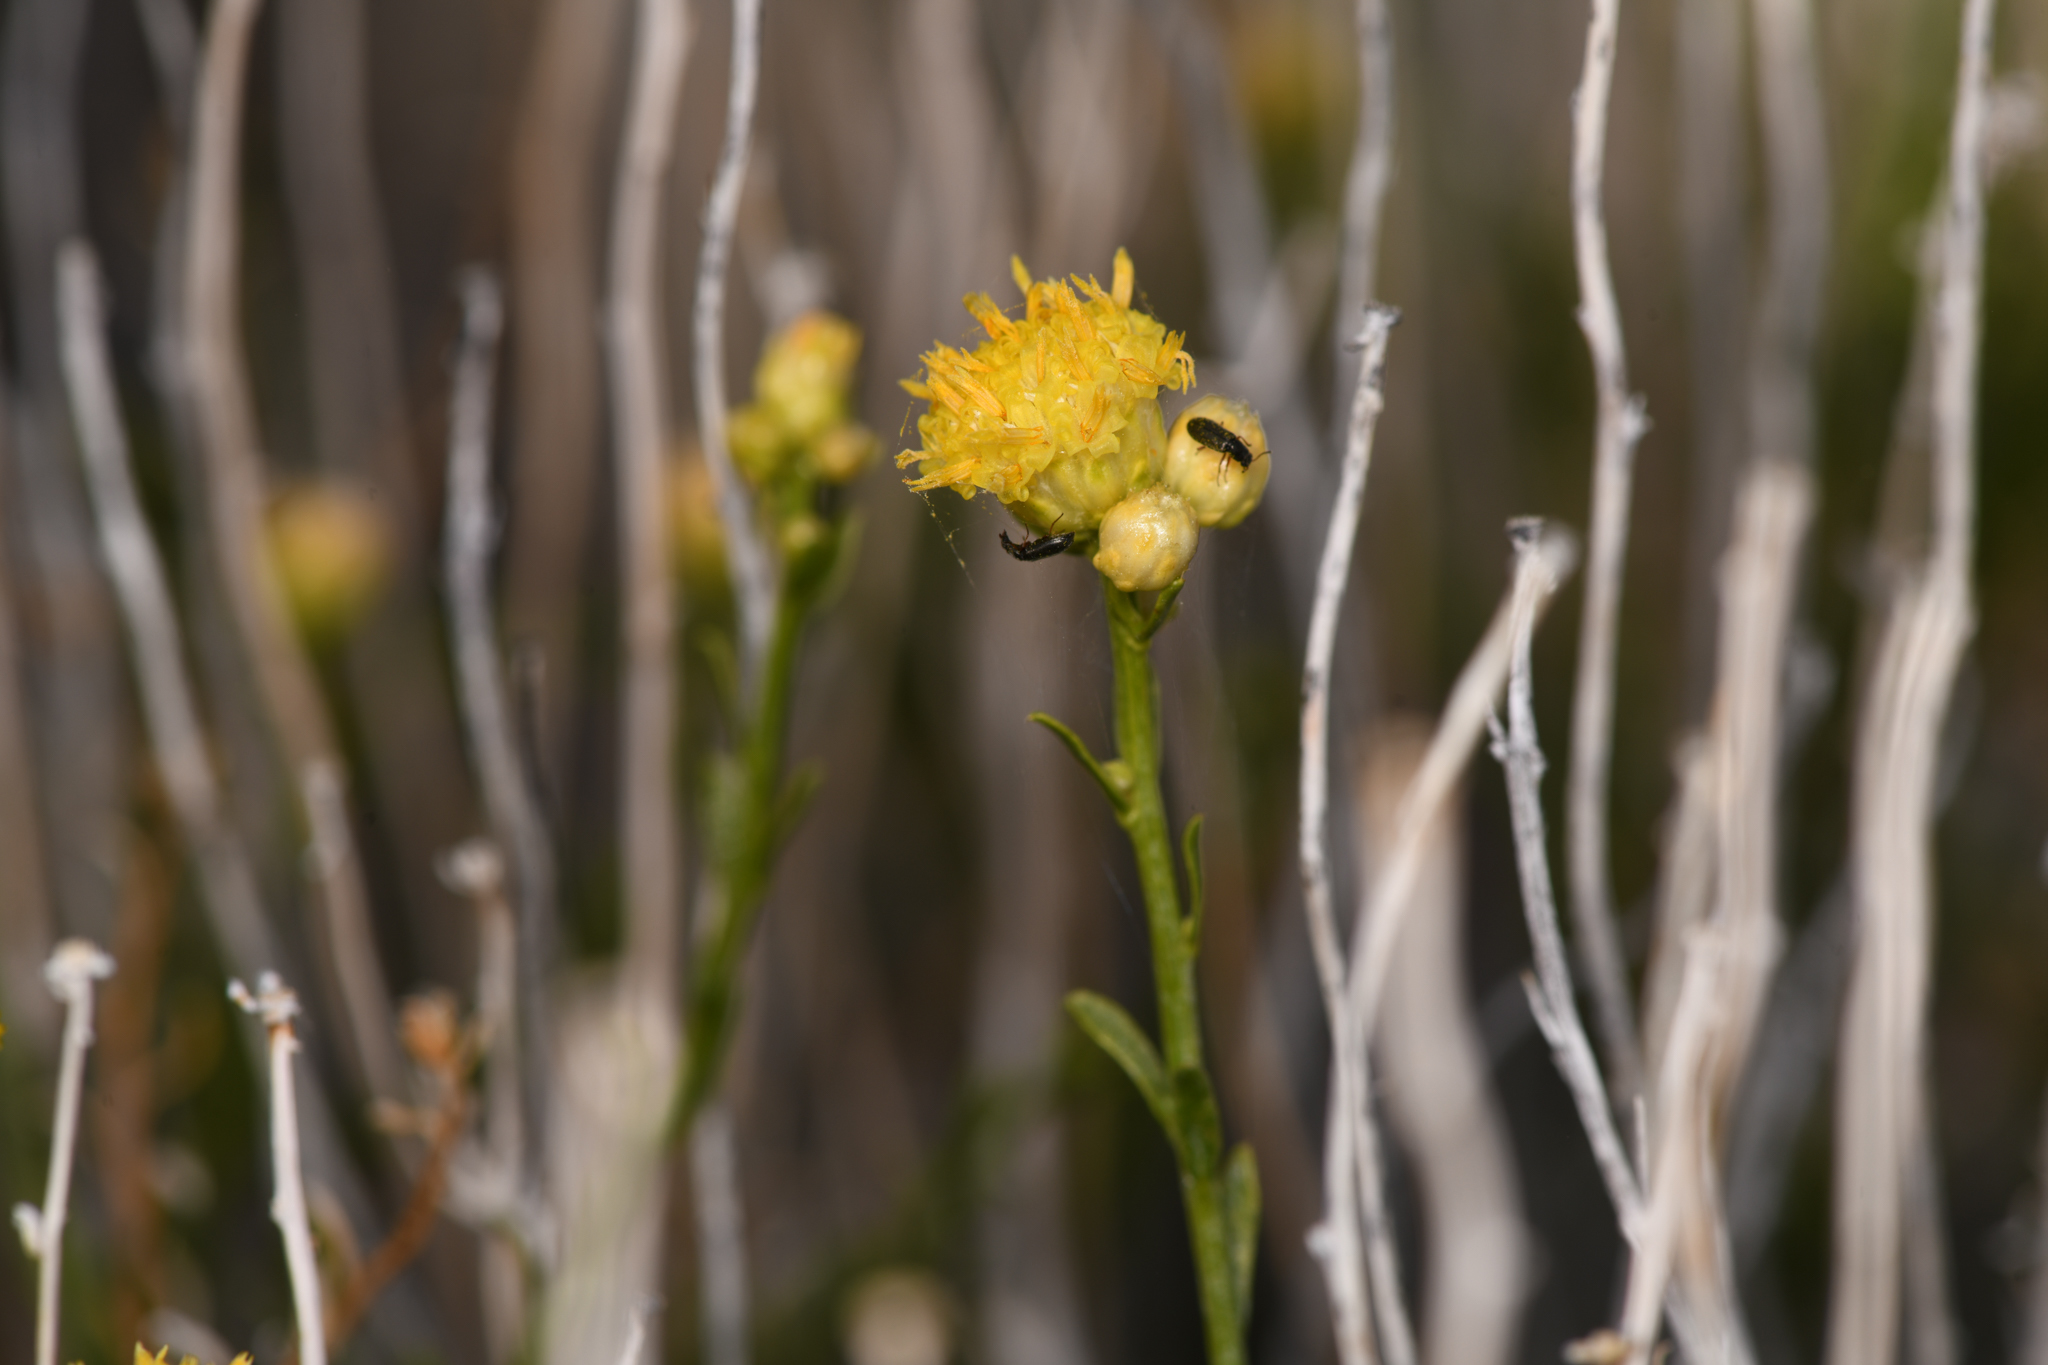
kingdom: Plantae
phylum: Tracheophyta
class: Magnoliopsida
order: Asterales
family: Asteraceae
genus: Acamptopappus
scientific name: Acamptopappus sphaerocephalus
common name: Goldenhead
